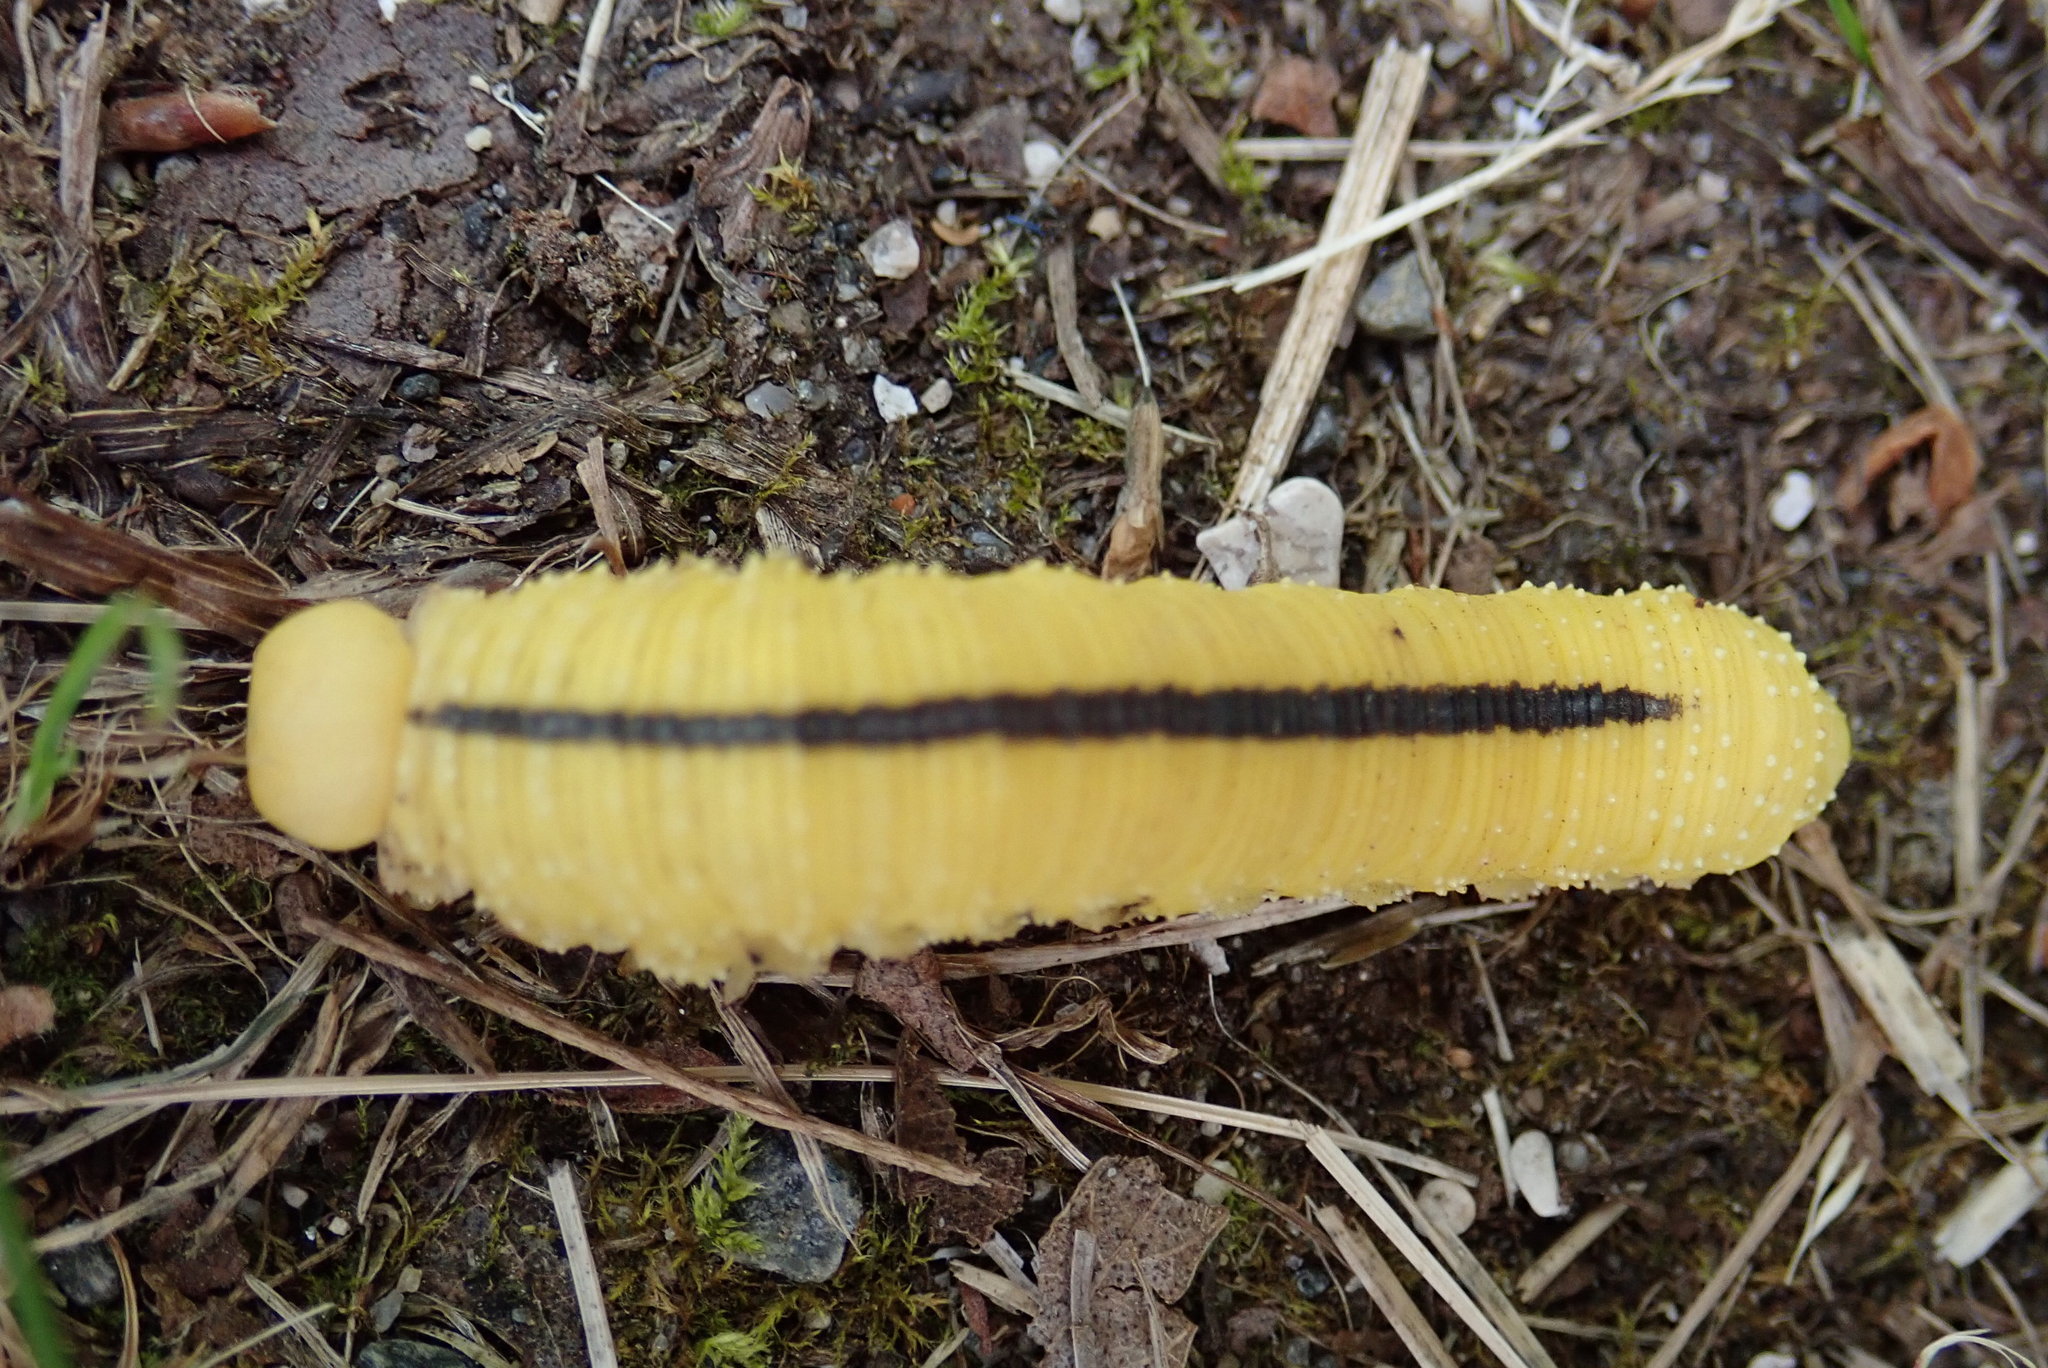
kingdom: Animalia
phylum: Arthropoda
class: Insecta
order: Hymenoptera
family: Cimbicidae
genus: Cimbex
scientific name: Cimbex americana
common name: Elm sawfly
